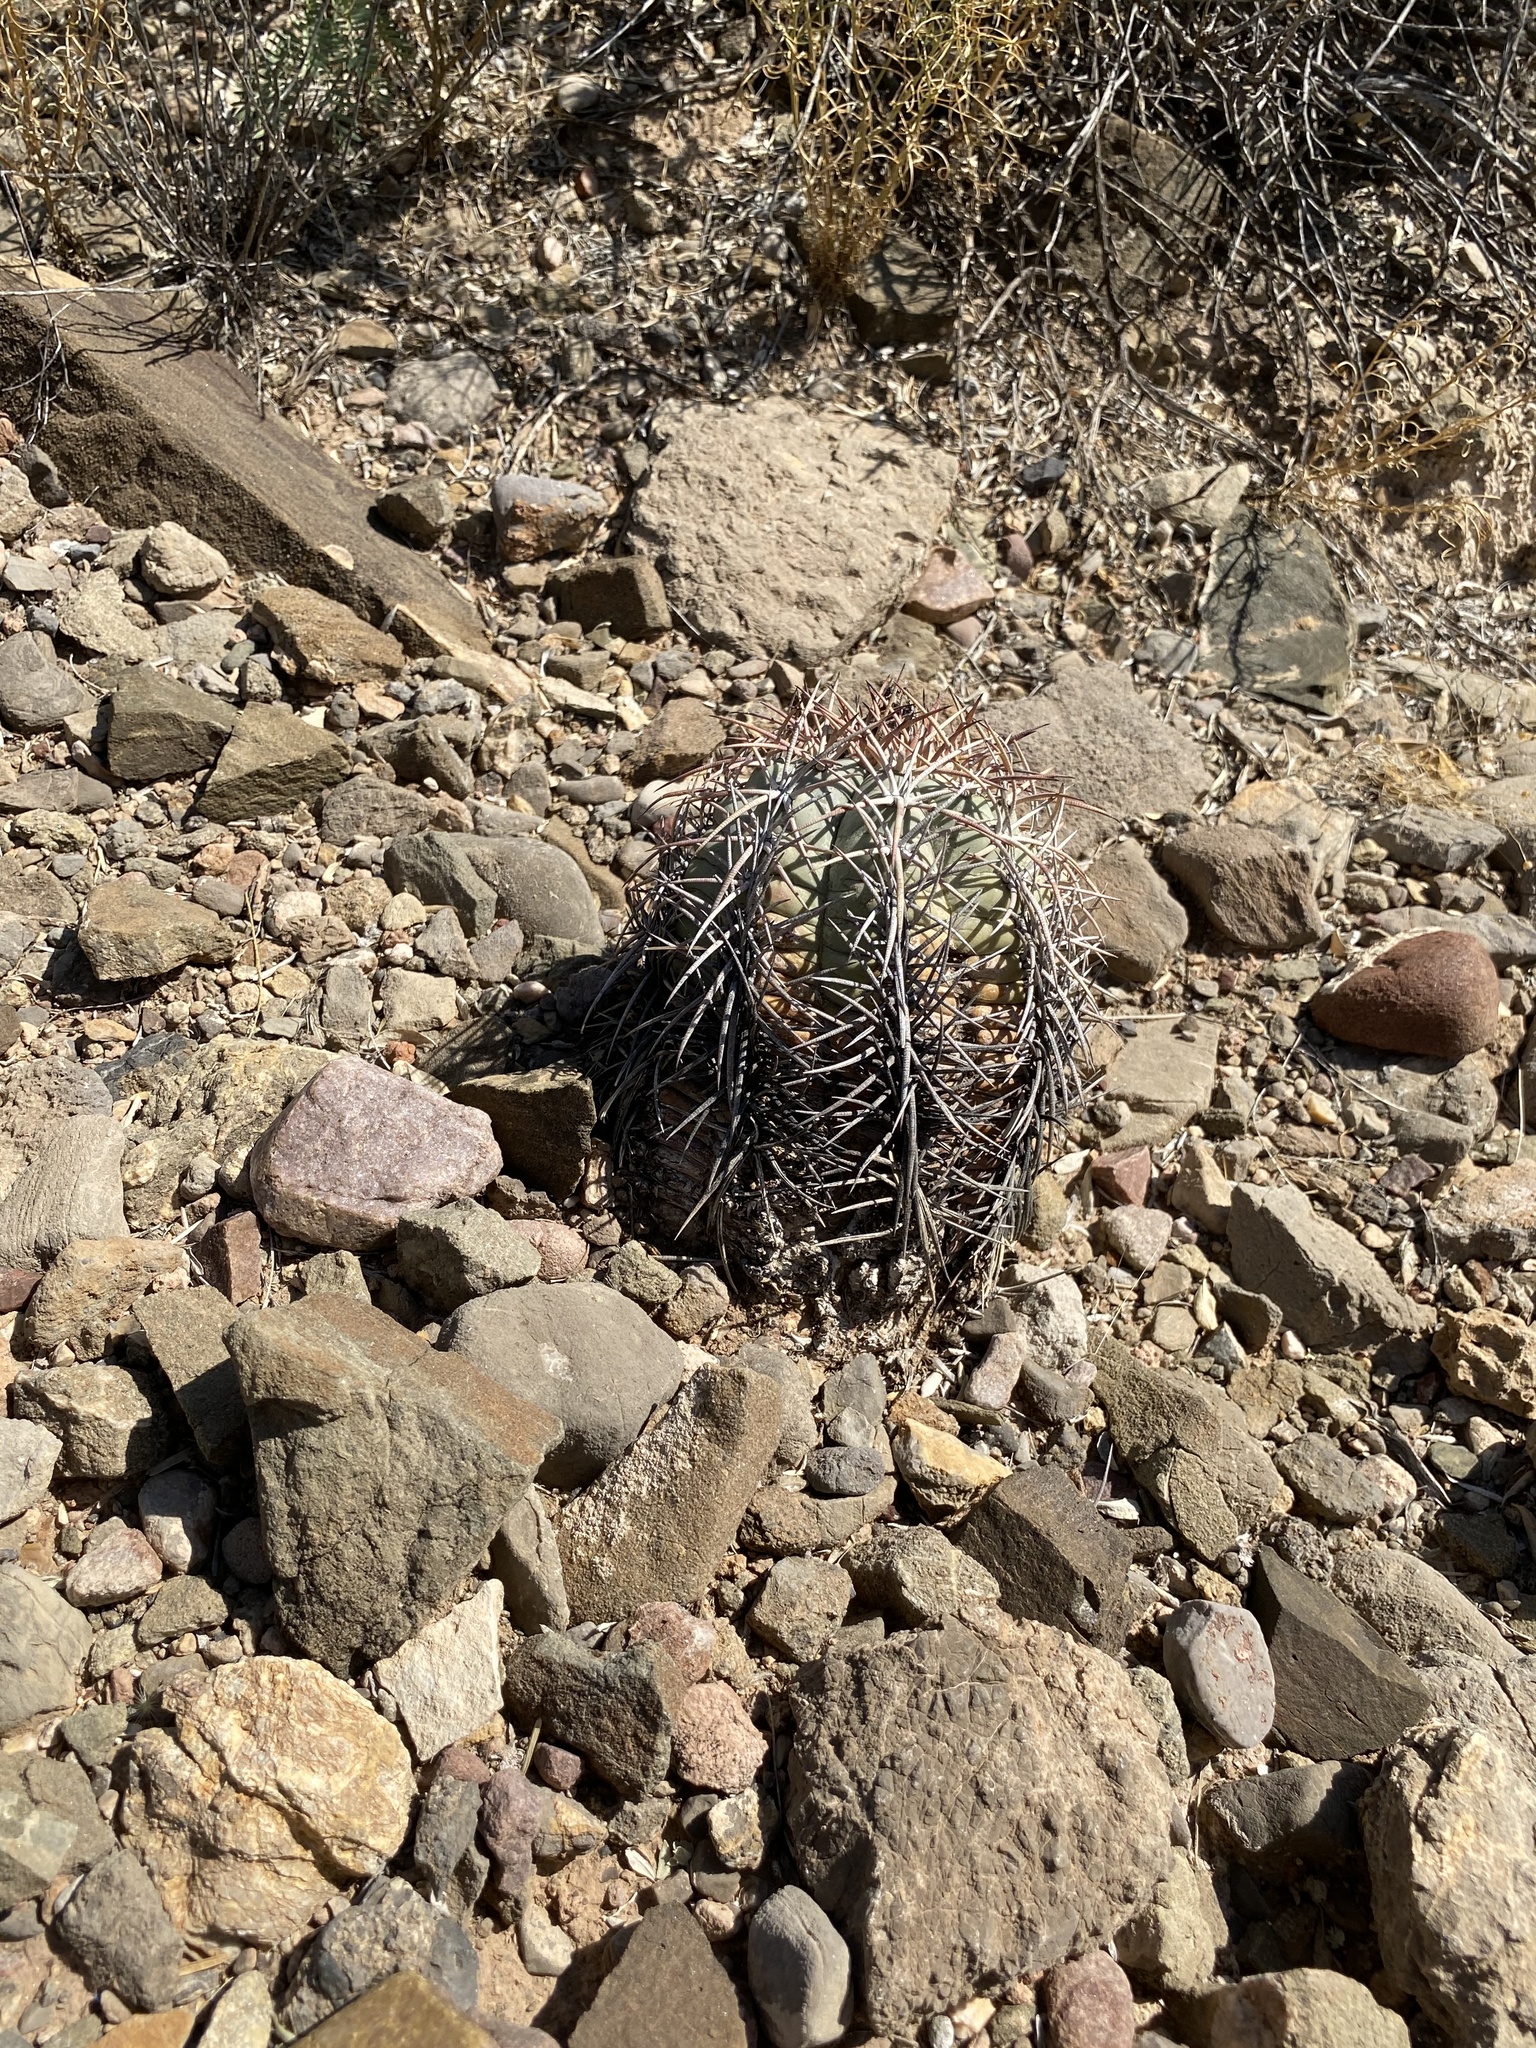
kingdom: Plantae
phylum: Tracheophyta
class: Magnoliopsida
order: Caryophyllales
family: Cactaceae
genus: Echinocactus
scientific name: Echinocactus horizonthalonius
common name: Devilshead
